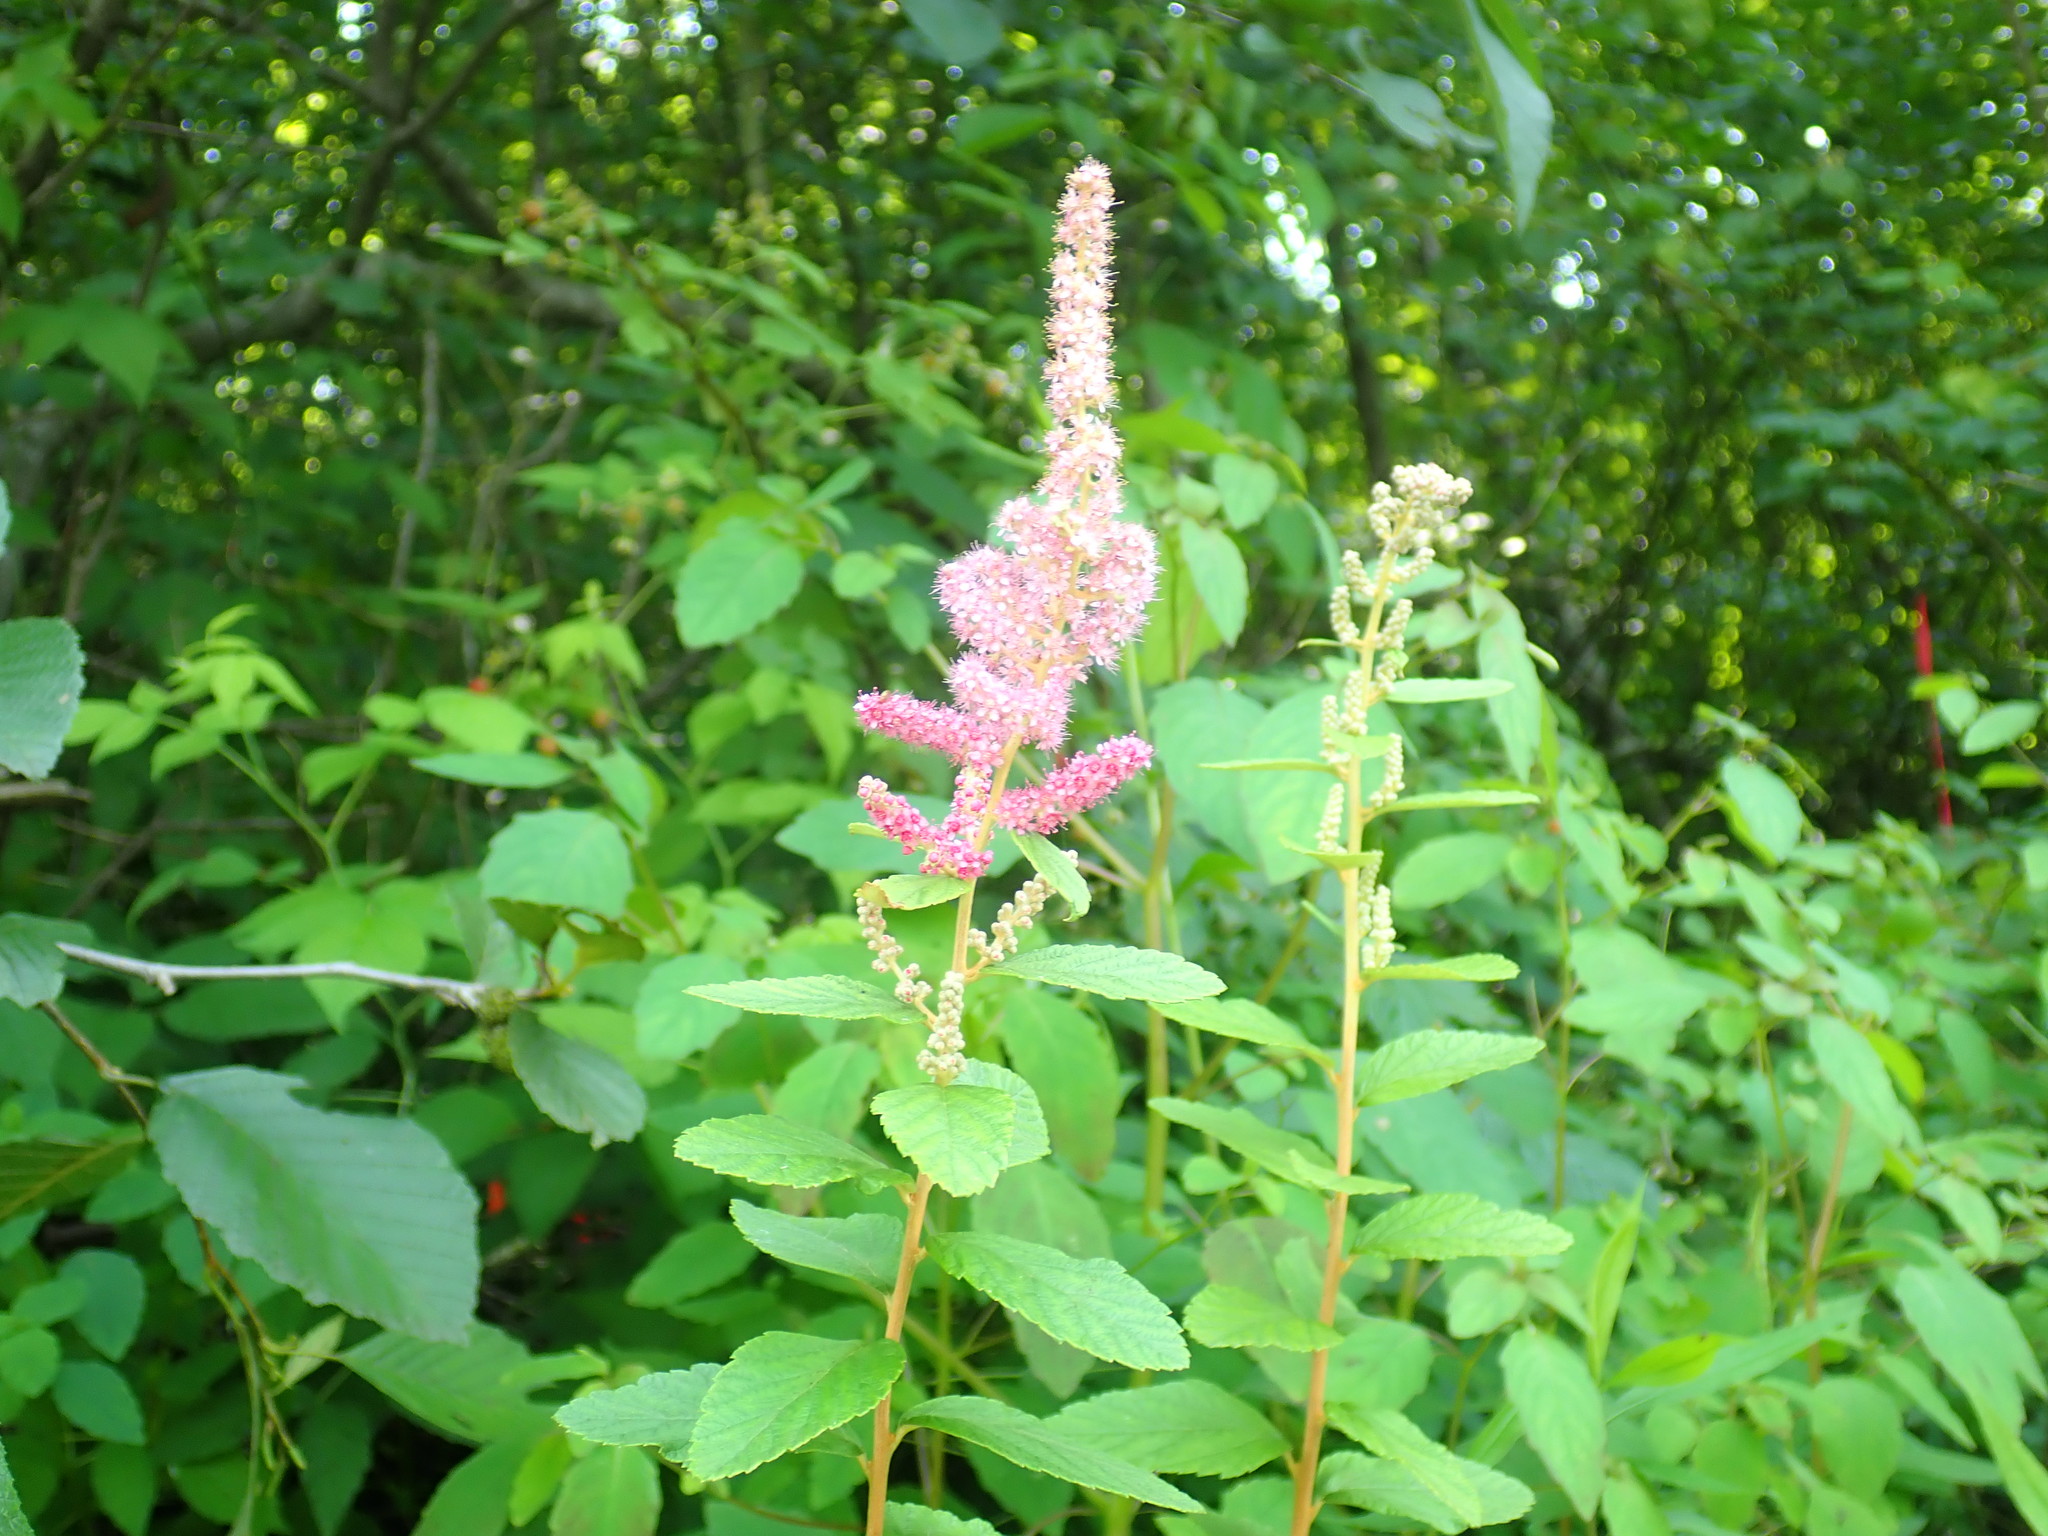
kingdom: Plantae
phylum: Tracheophyta
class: Magnoliopsida
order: Rosales
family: Rosaceae
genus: Spiraea
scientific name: Spiraea tomentosa
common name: Hardhack
